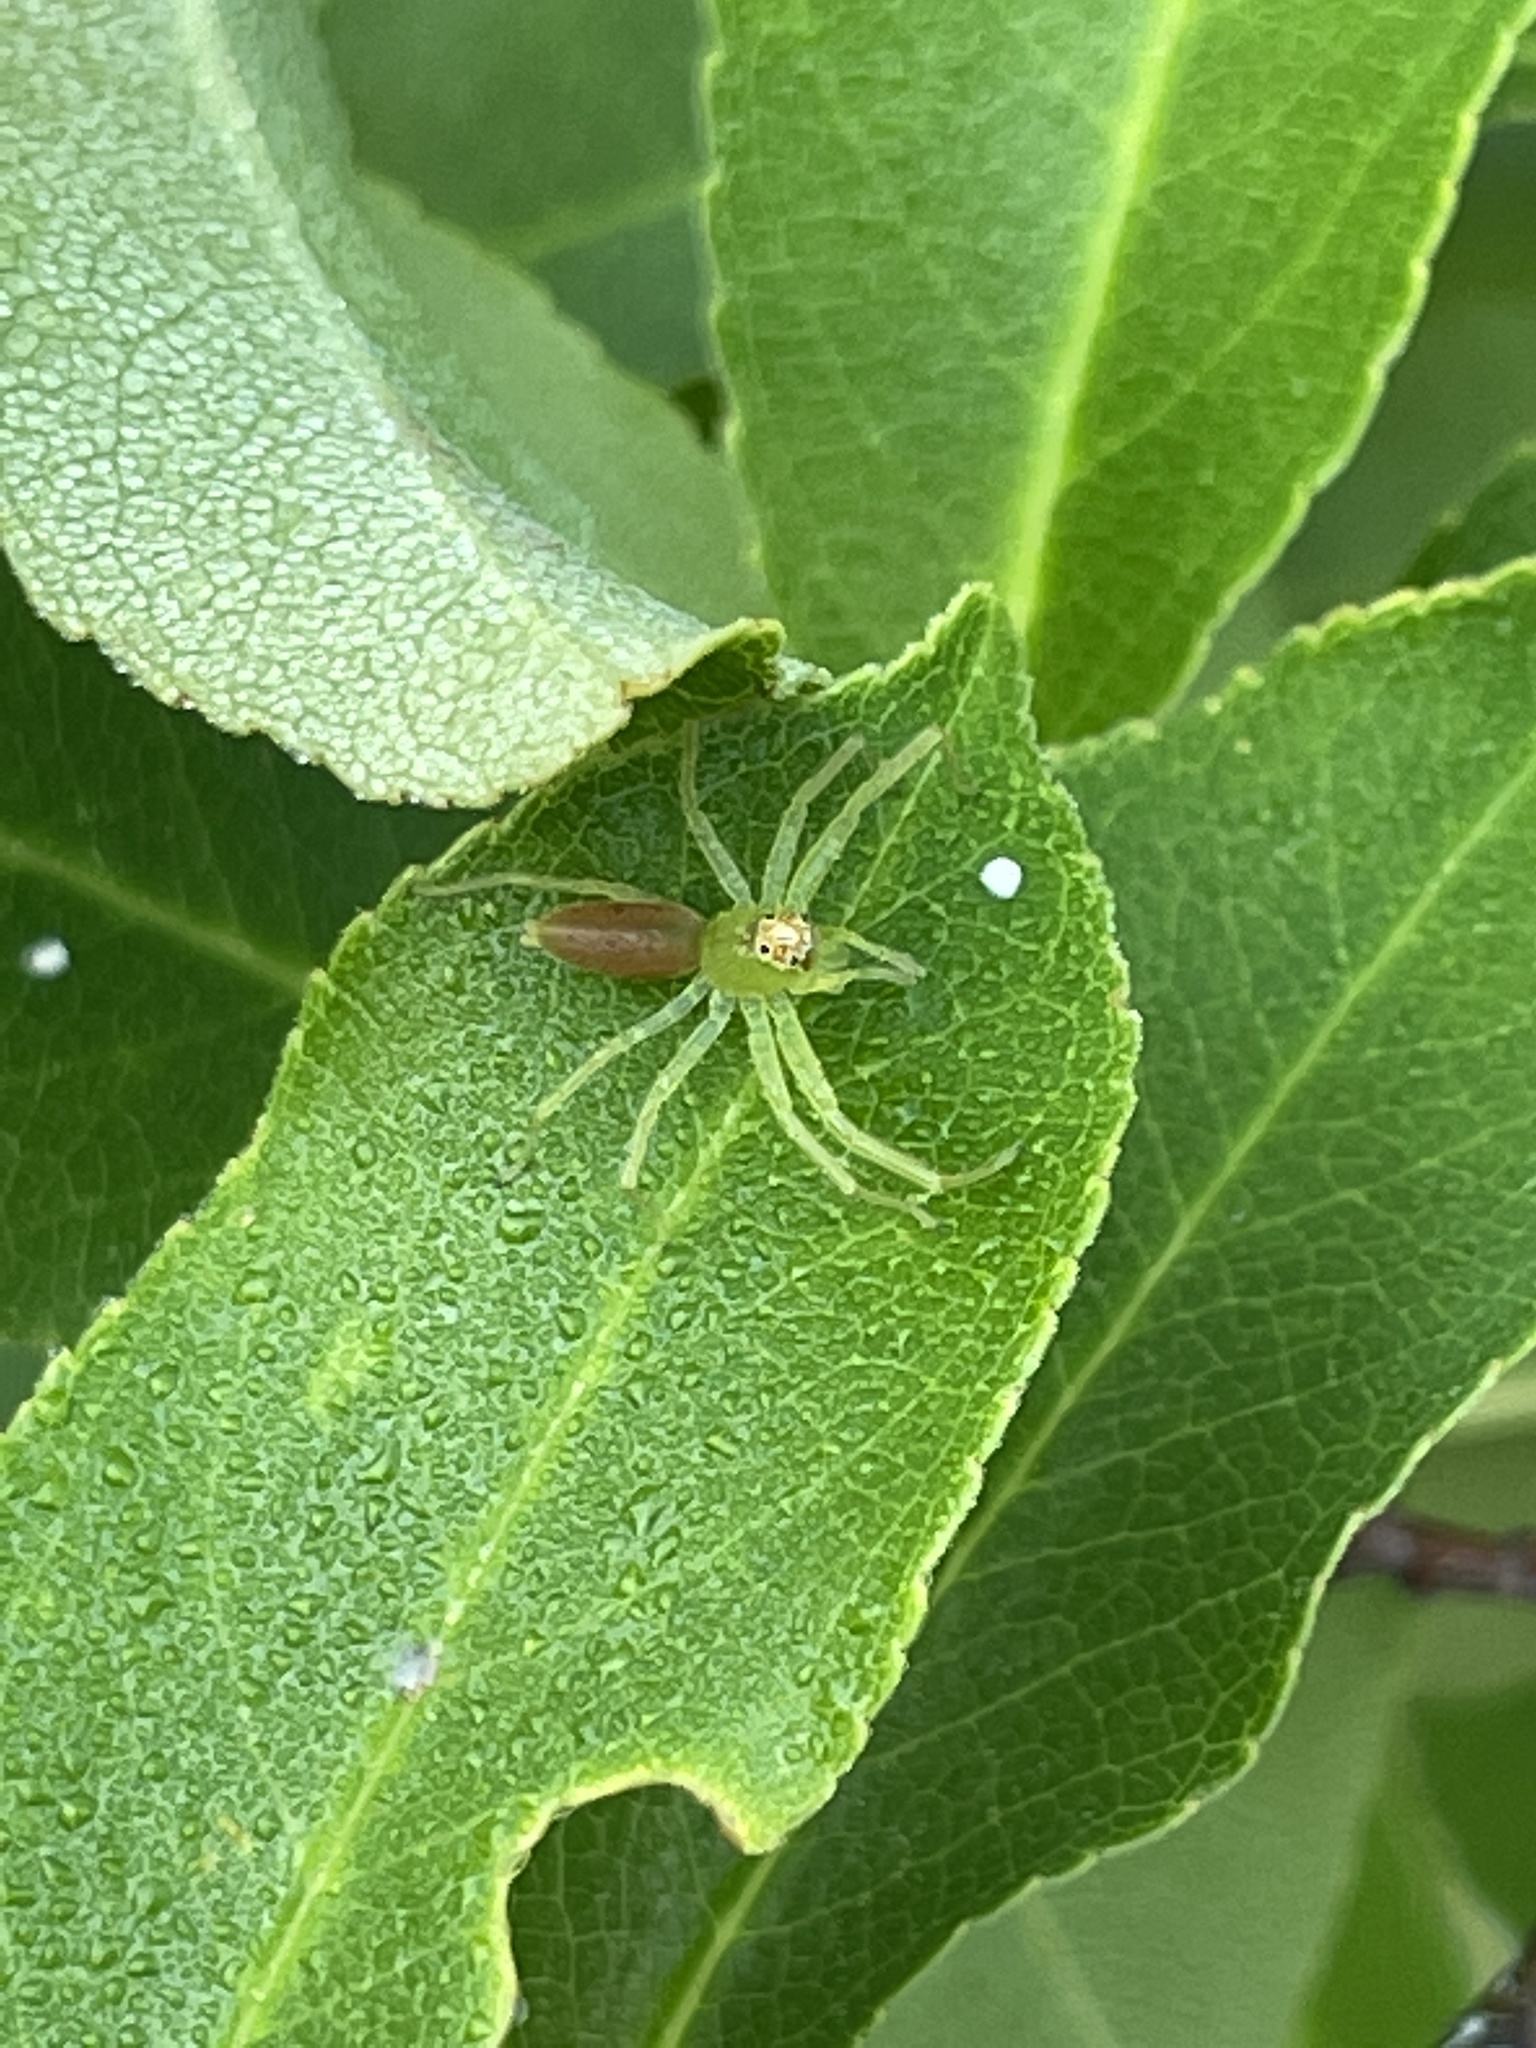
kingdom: Animalia
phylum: Arthropoda
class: Arachnida
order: Araneae
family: Salticidae
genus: Lyssomanes
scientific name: Lyssomanes viridis
